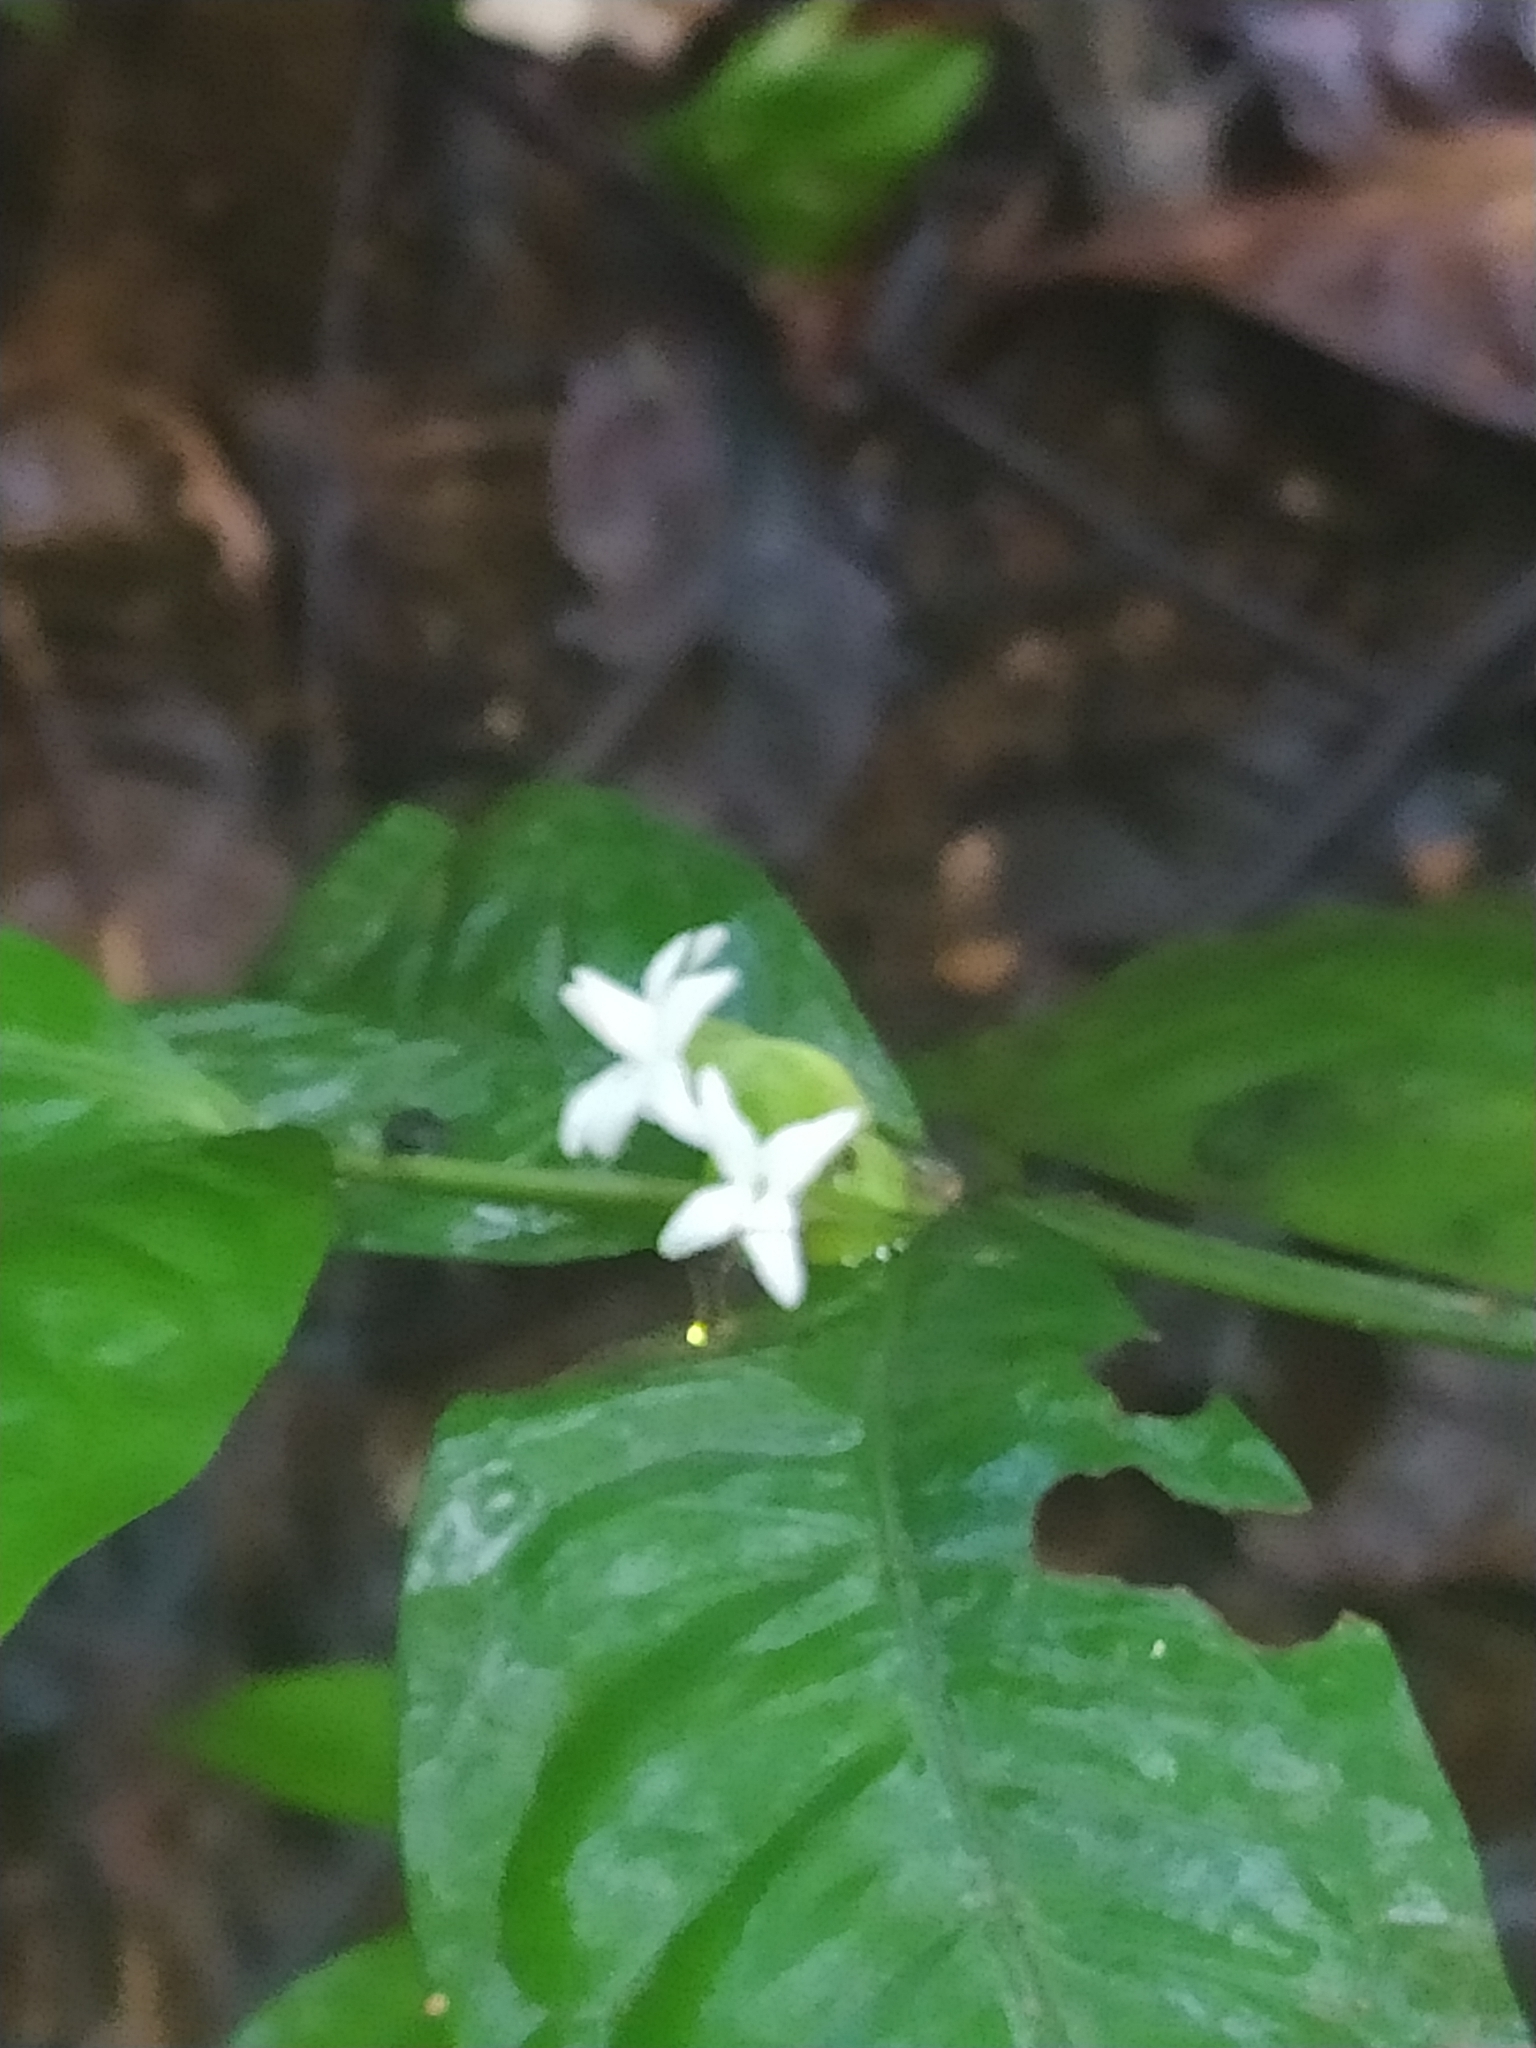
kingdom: Plantae
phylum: Tracheophyta
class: Magnoliopsida
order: Gentianales
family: Rubiaceae
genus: Faramea
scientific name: Faramea guianensis
